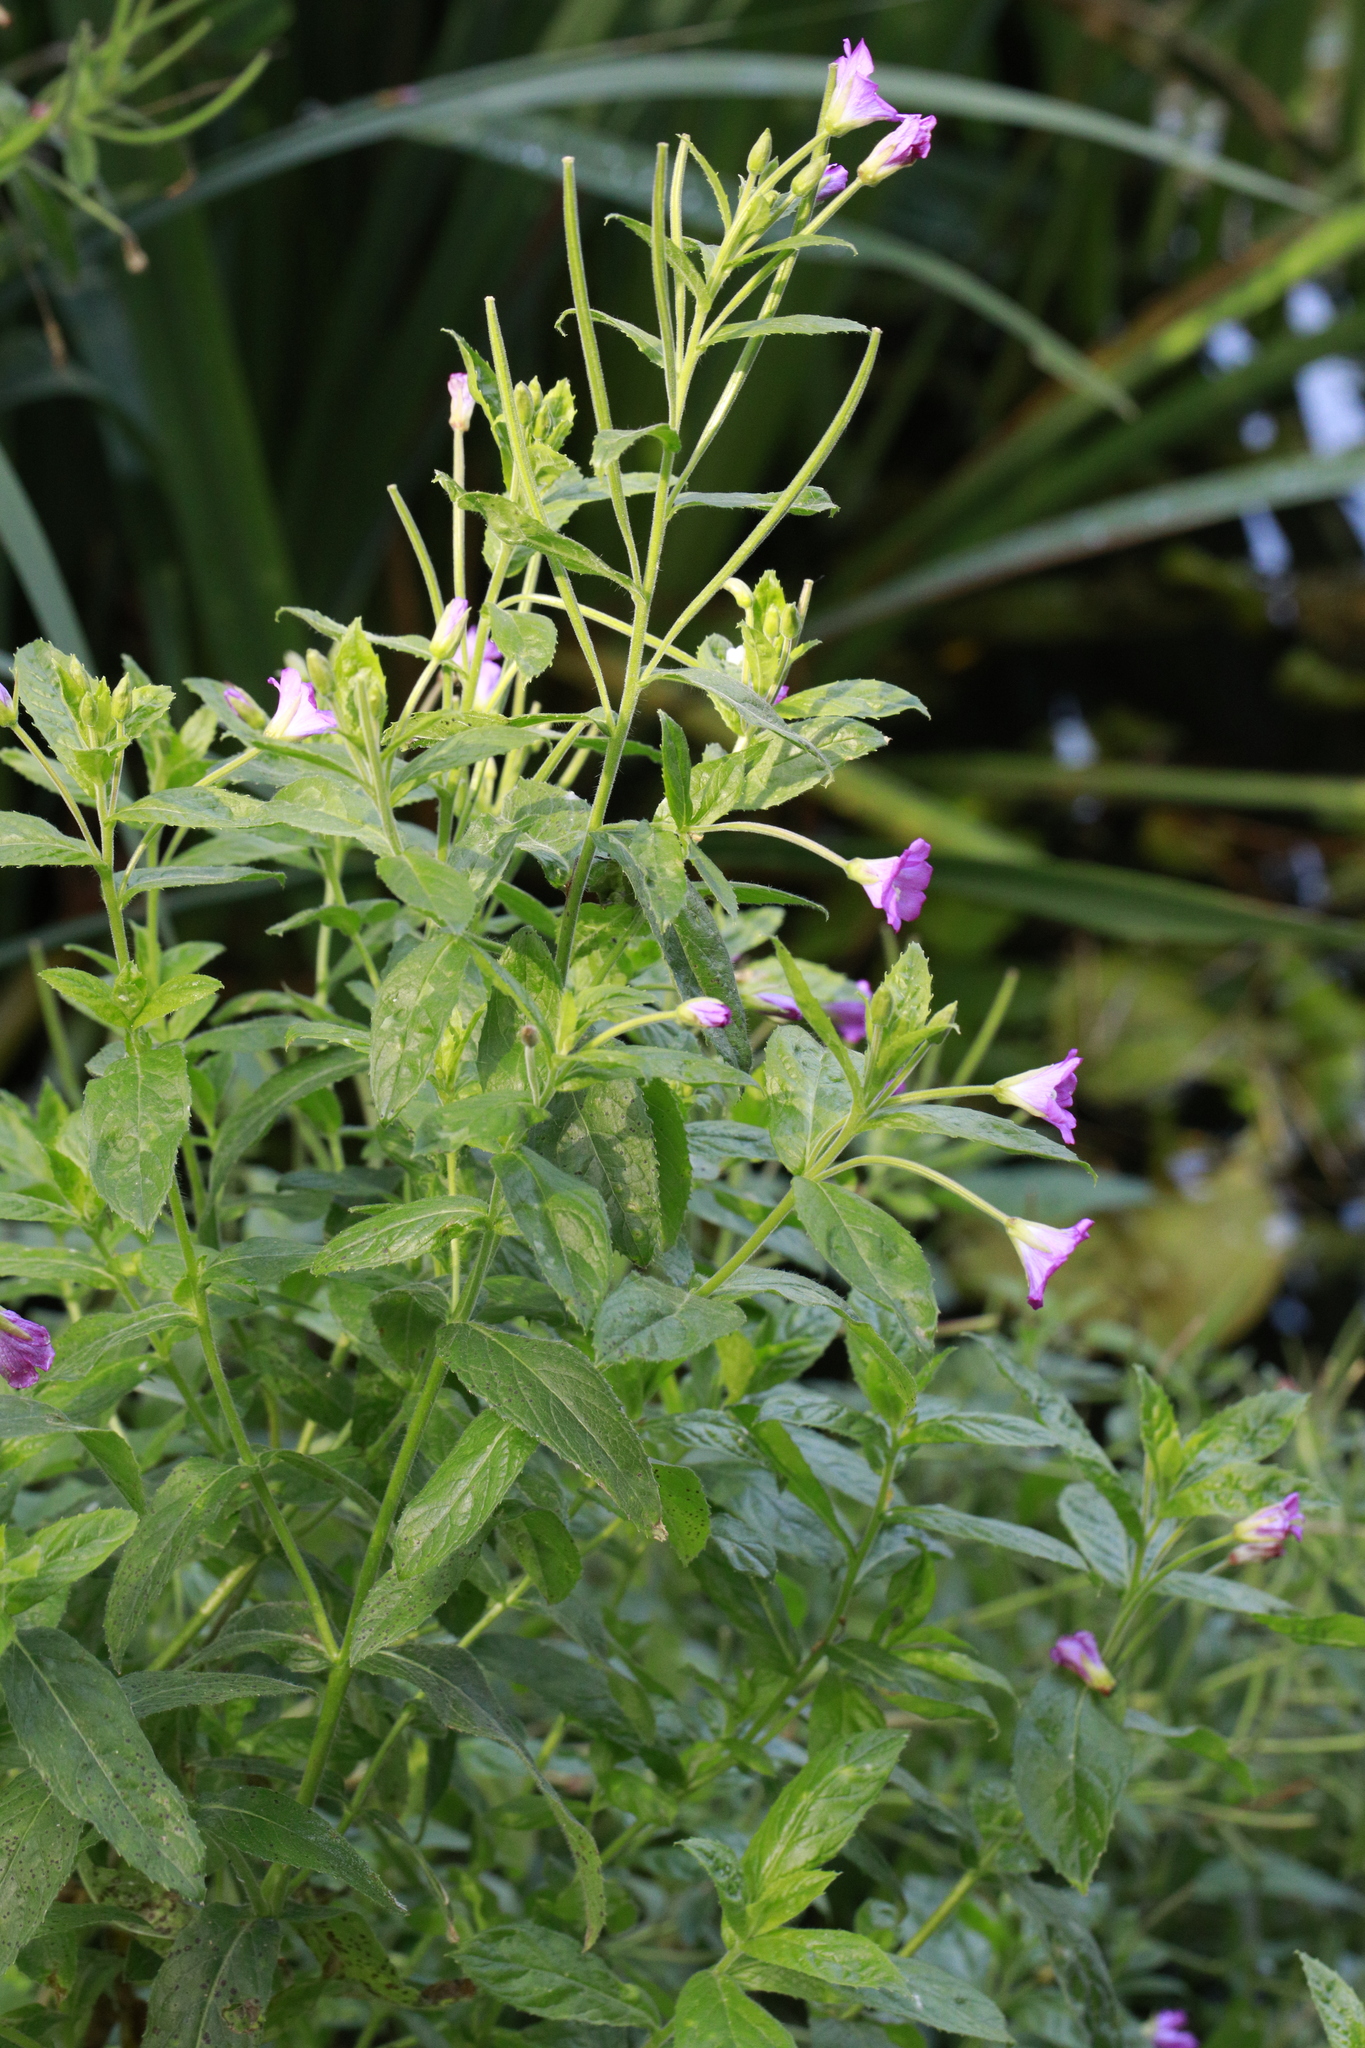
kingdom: Plantae
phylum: Tracheophyta
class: Magnoliopsida
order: Myrtales
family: Onagraceae
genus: Epilobium
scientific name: Epilobium hirsutum
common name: Great willowherb
